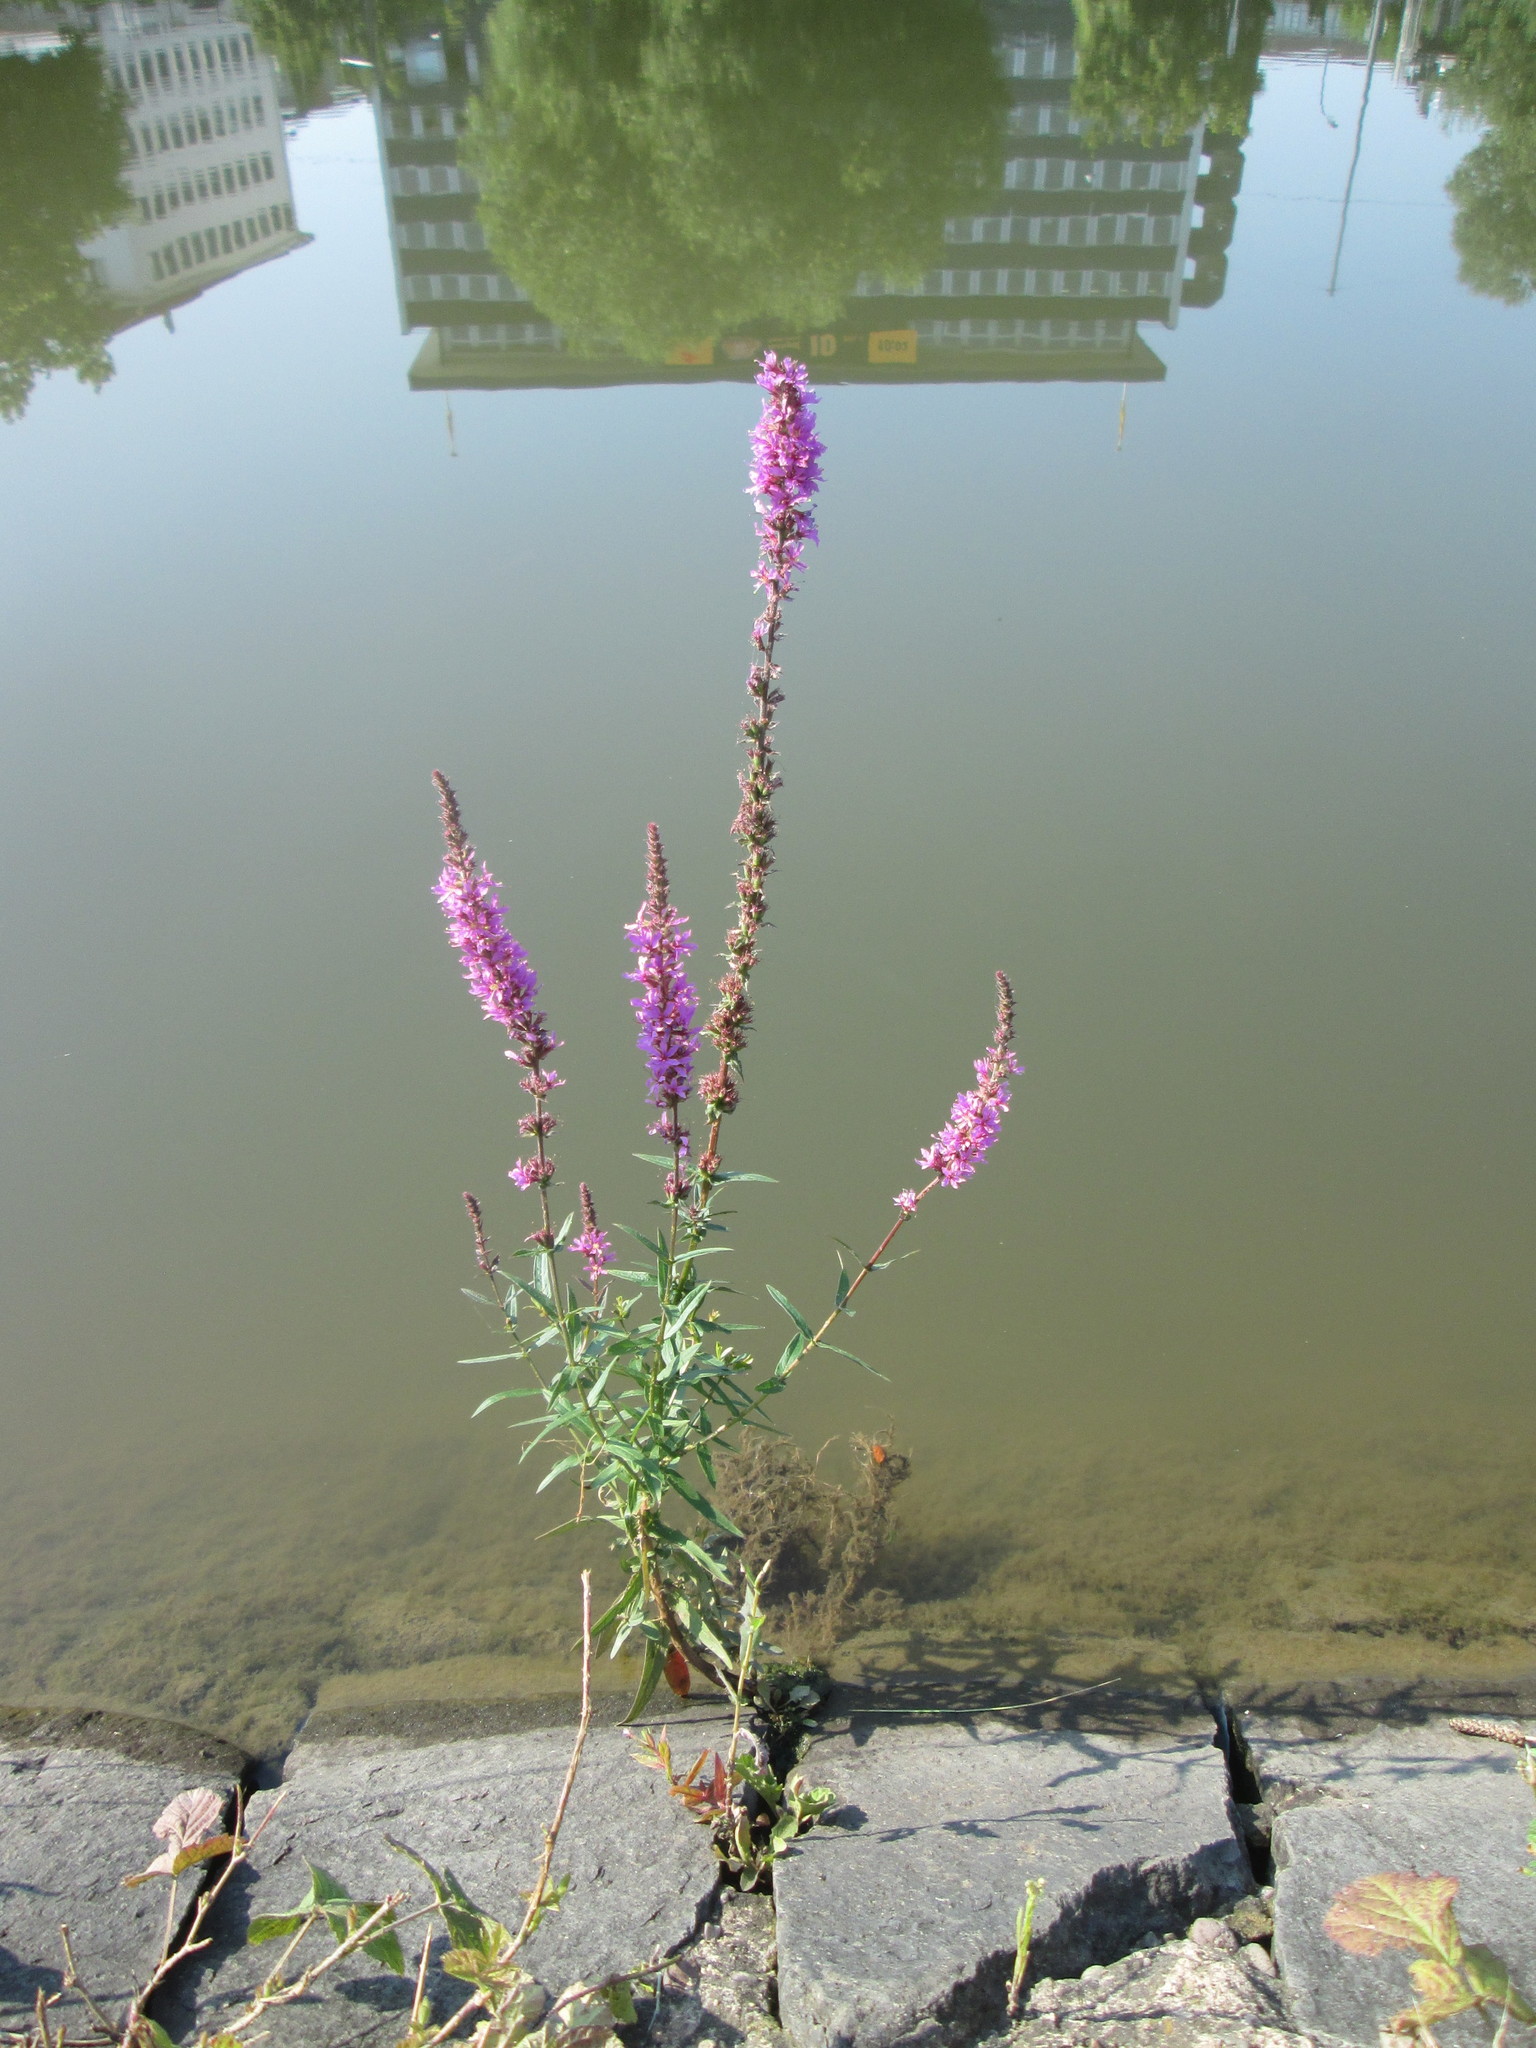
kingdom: Plantae
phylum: Tracheophyta
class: Magnoliopsida
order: Myrtales
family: Lythraceae
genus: Lythrum
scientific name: Lythrum salicaria
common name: Purple loosestrife
